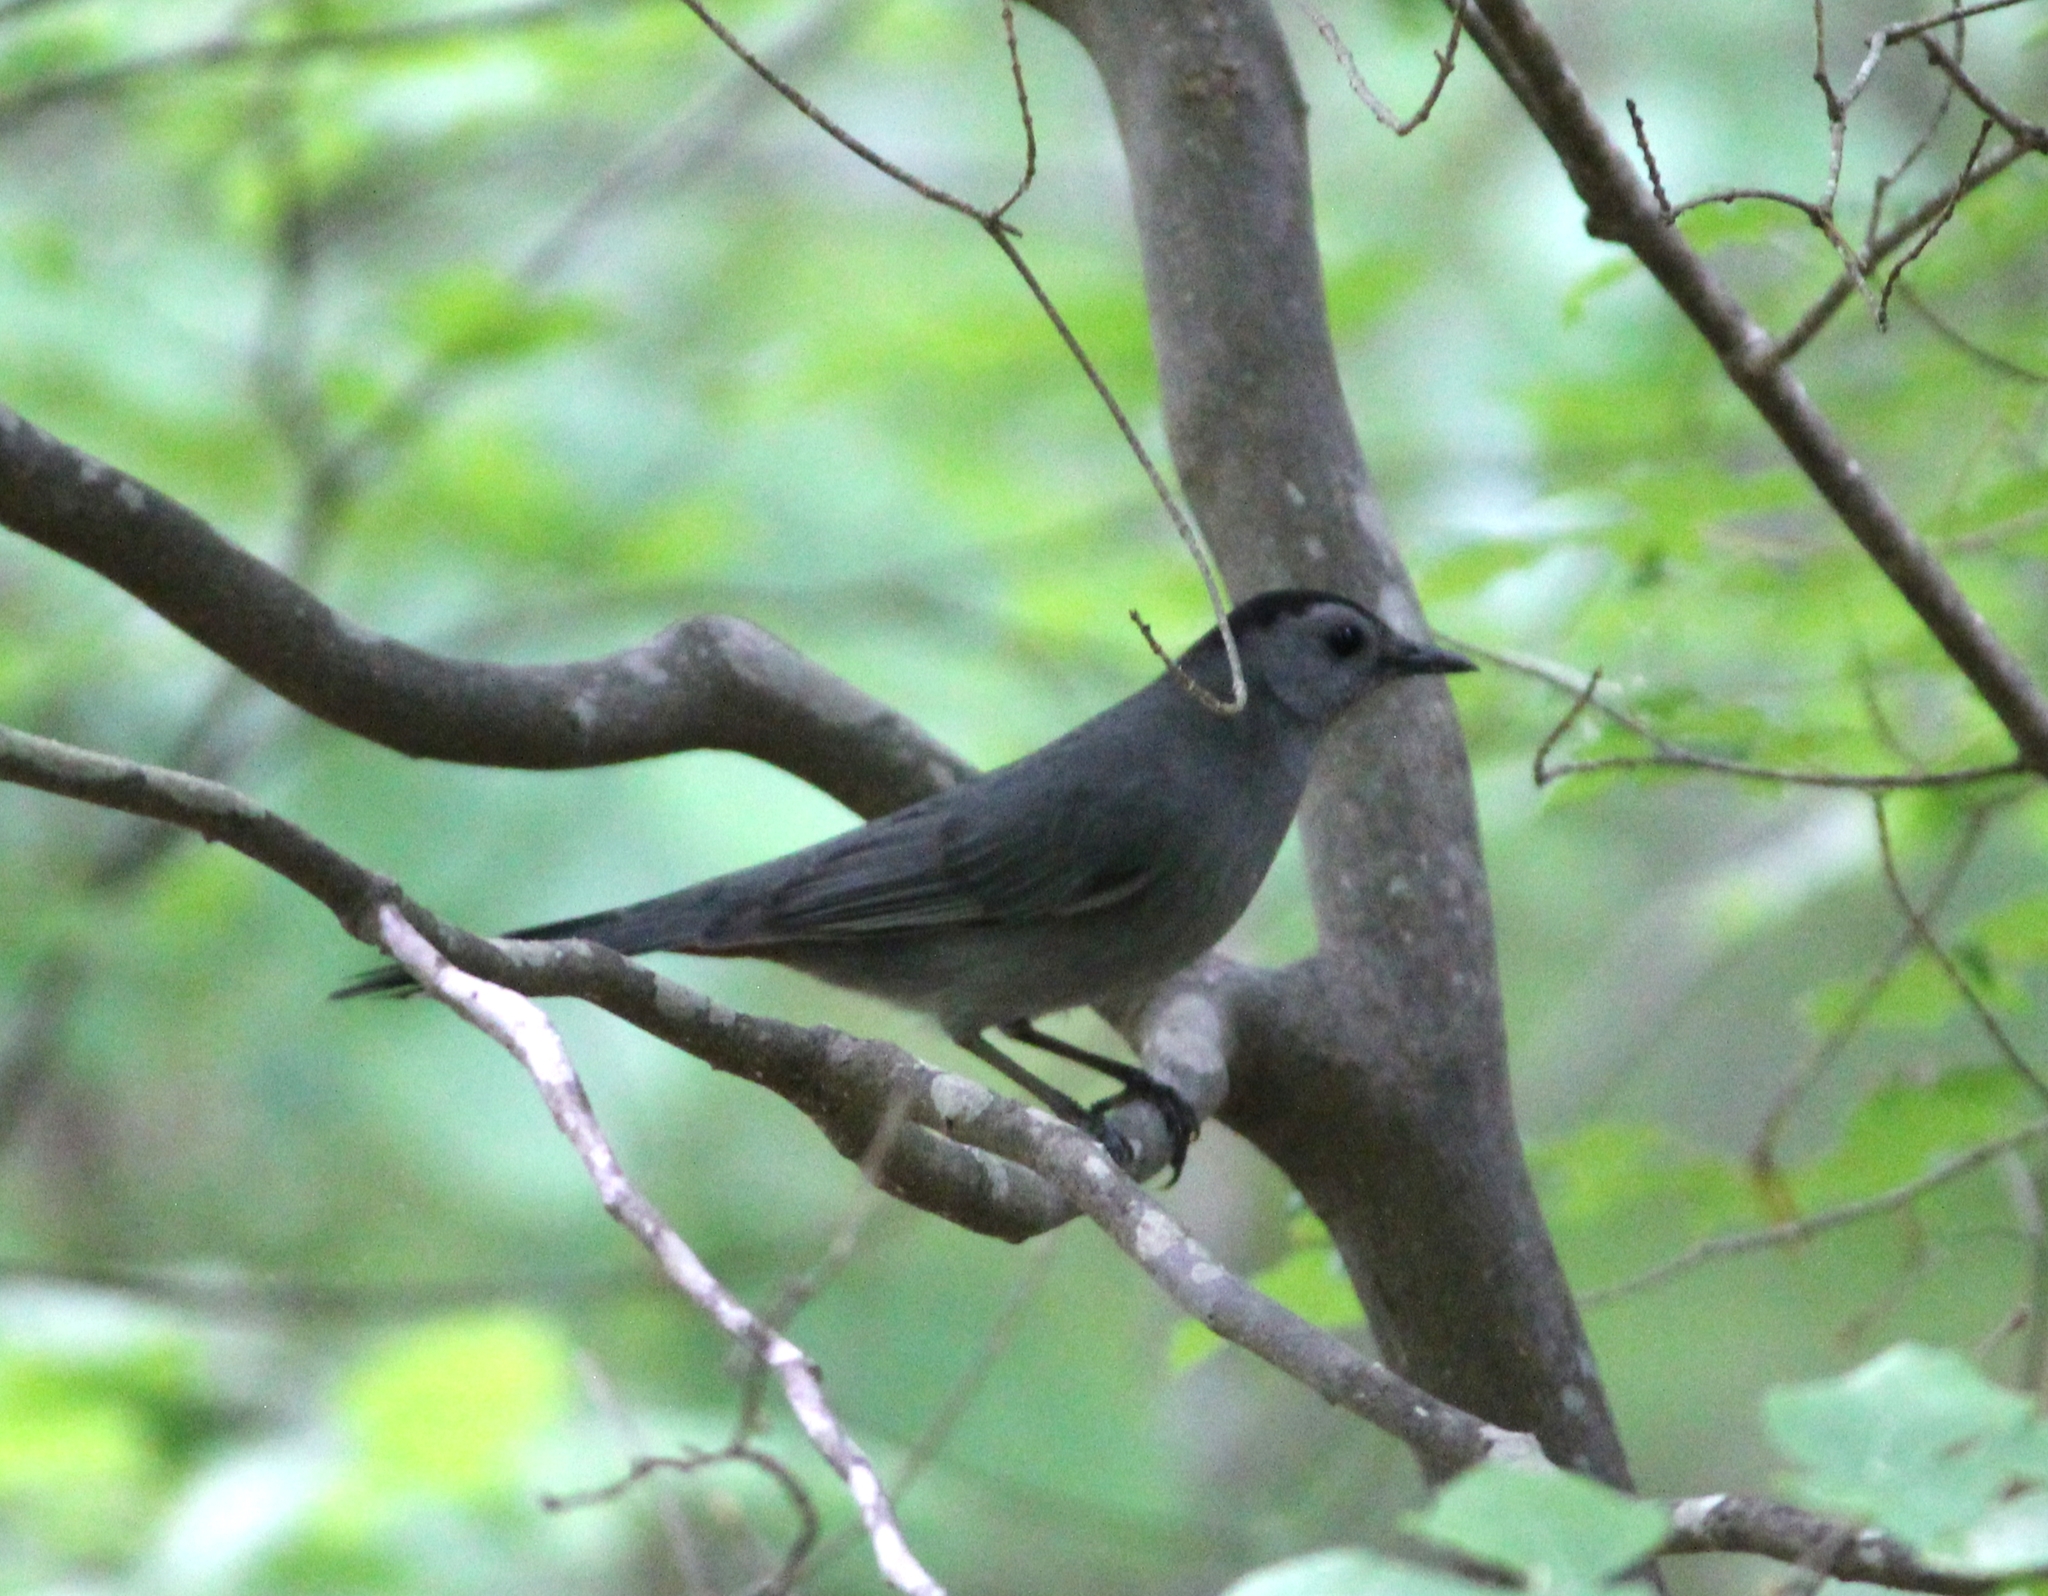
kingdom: Animalia
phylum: Chordata
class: Aves
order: Passeriformes
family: Mimidae
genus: Dumetella
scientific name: Dumetella carolinensis
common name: Gray catbird
